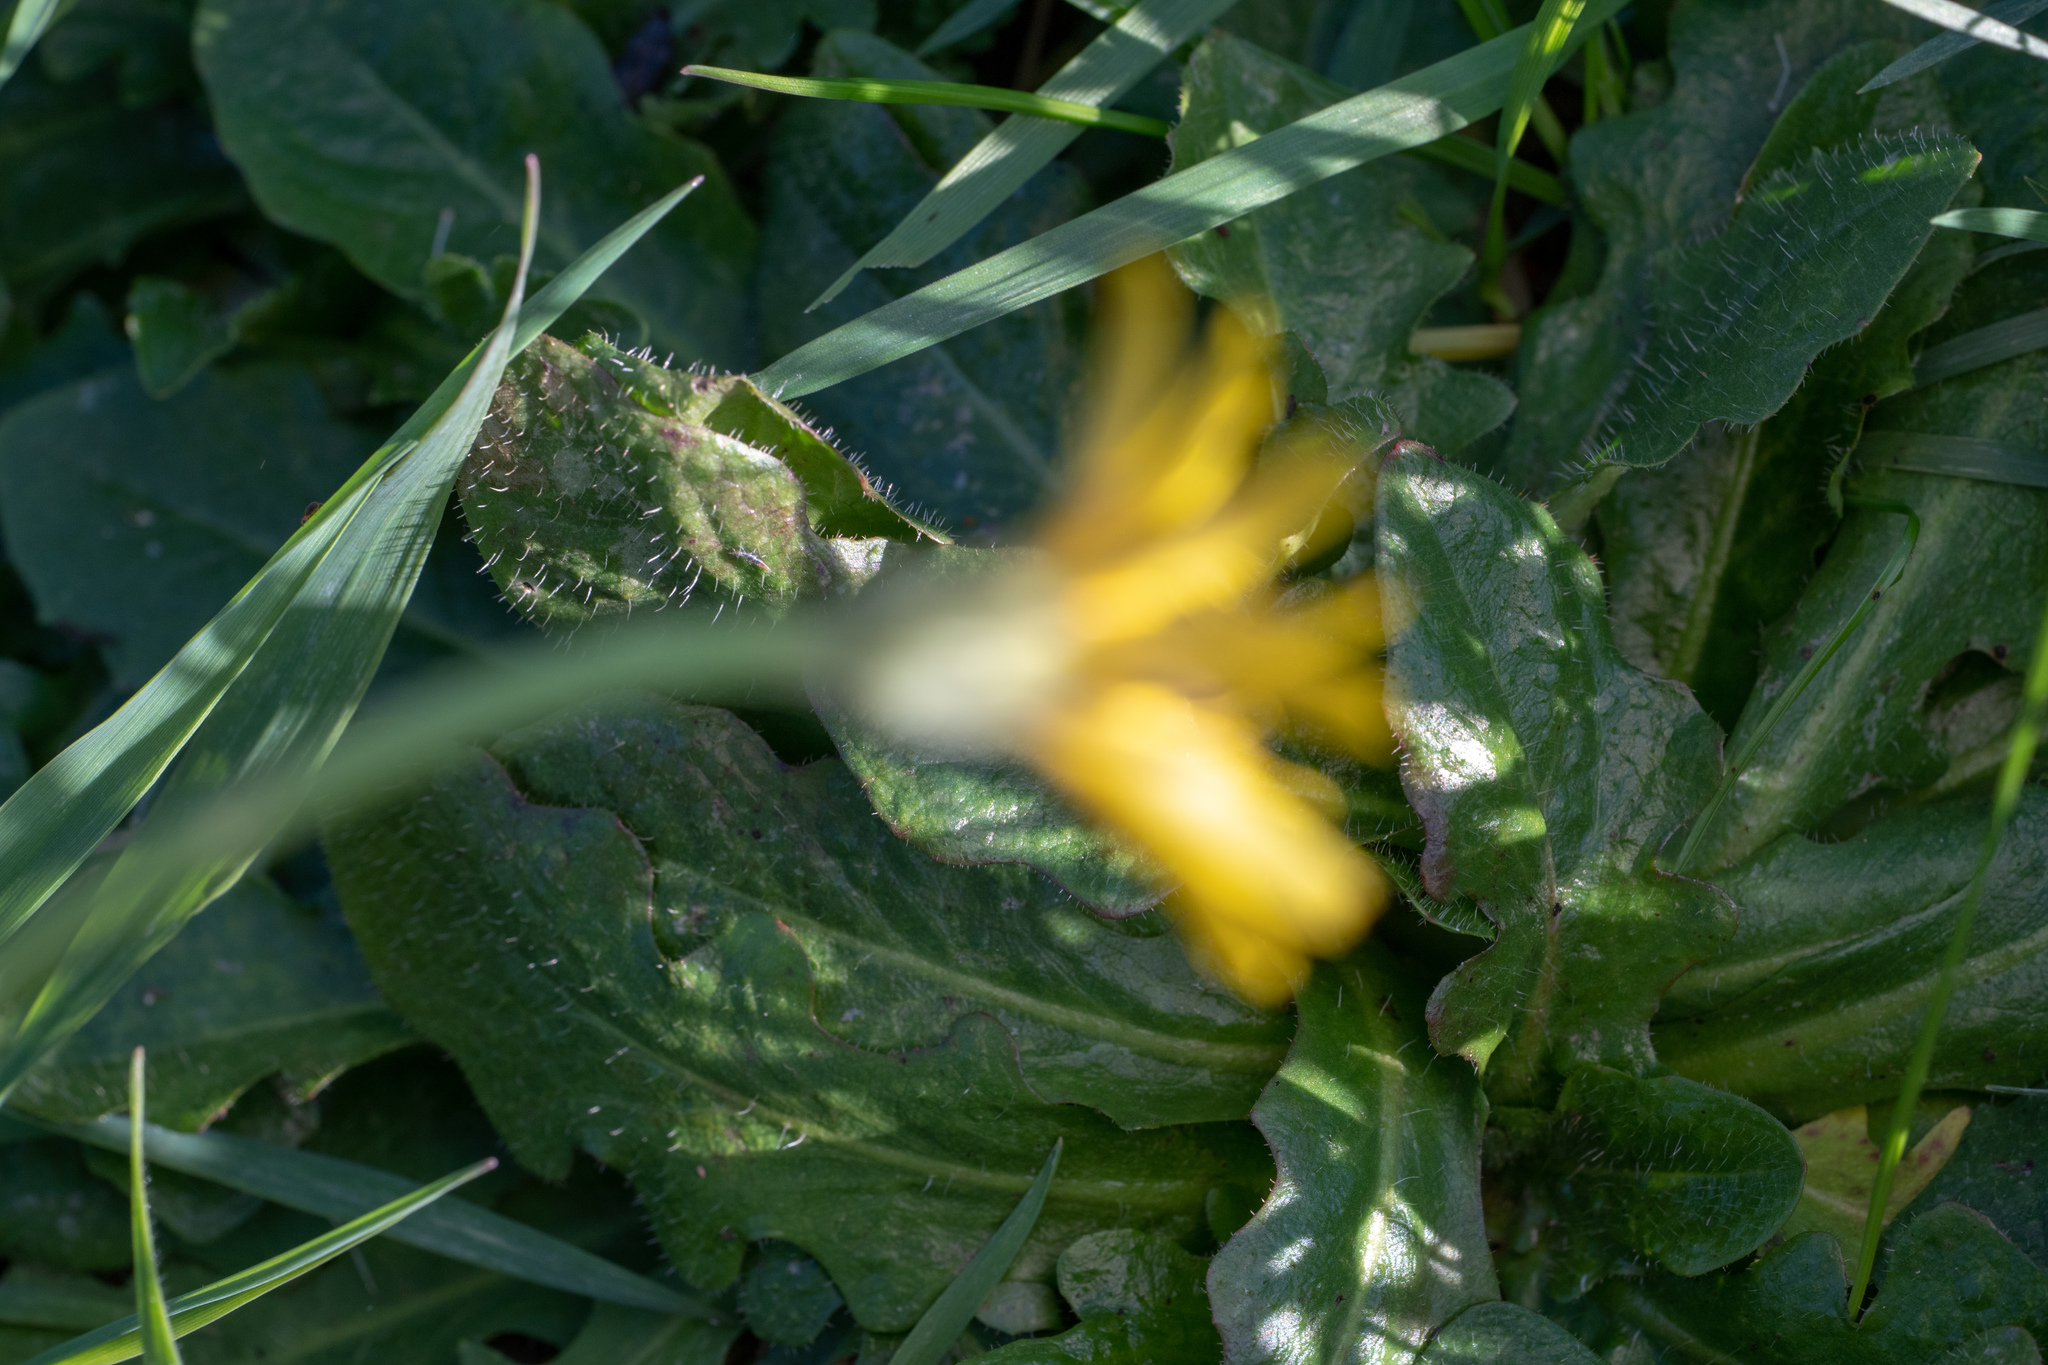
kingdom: Plantae
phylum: Tracheophyta
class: Magnoliopsida
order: Asterales
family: Asteraceae
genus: Hypochaeris
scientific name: Hypochaeris radicata
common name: Flatweed
